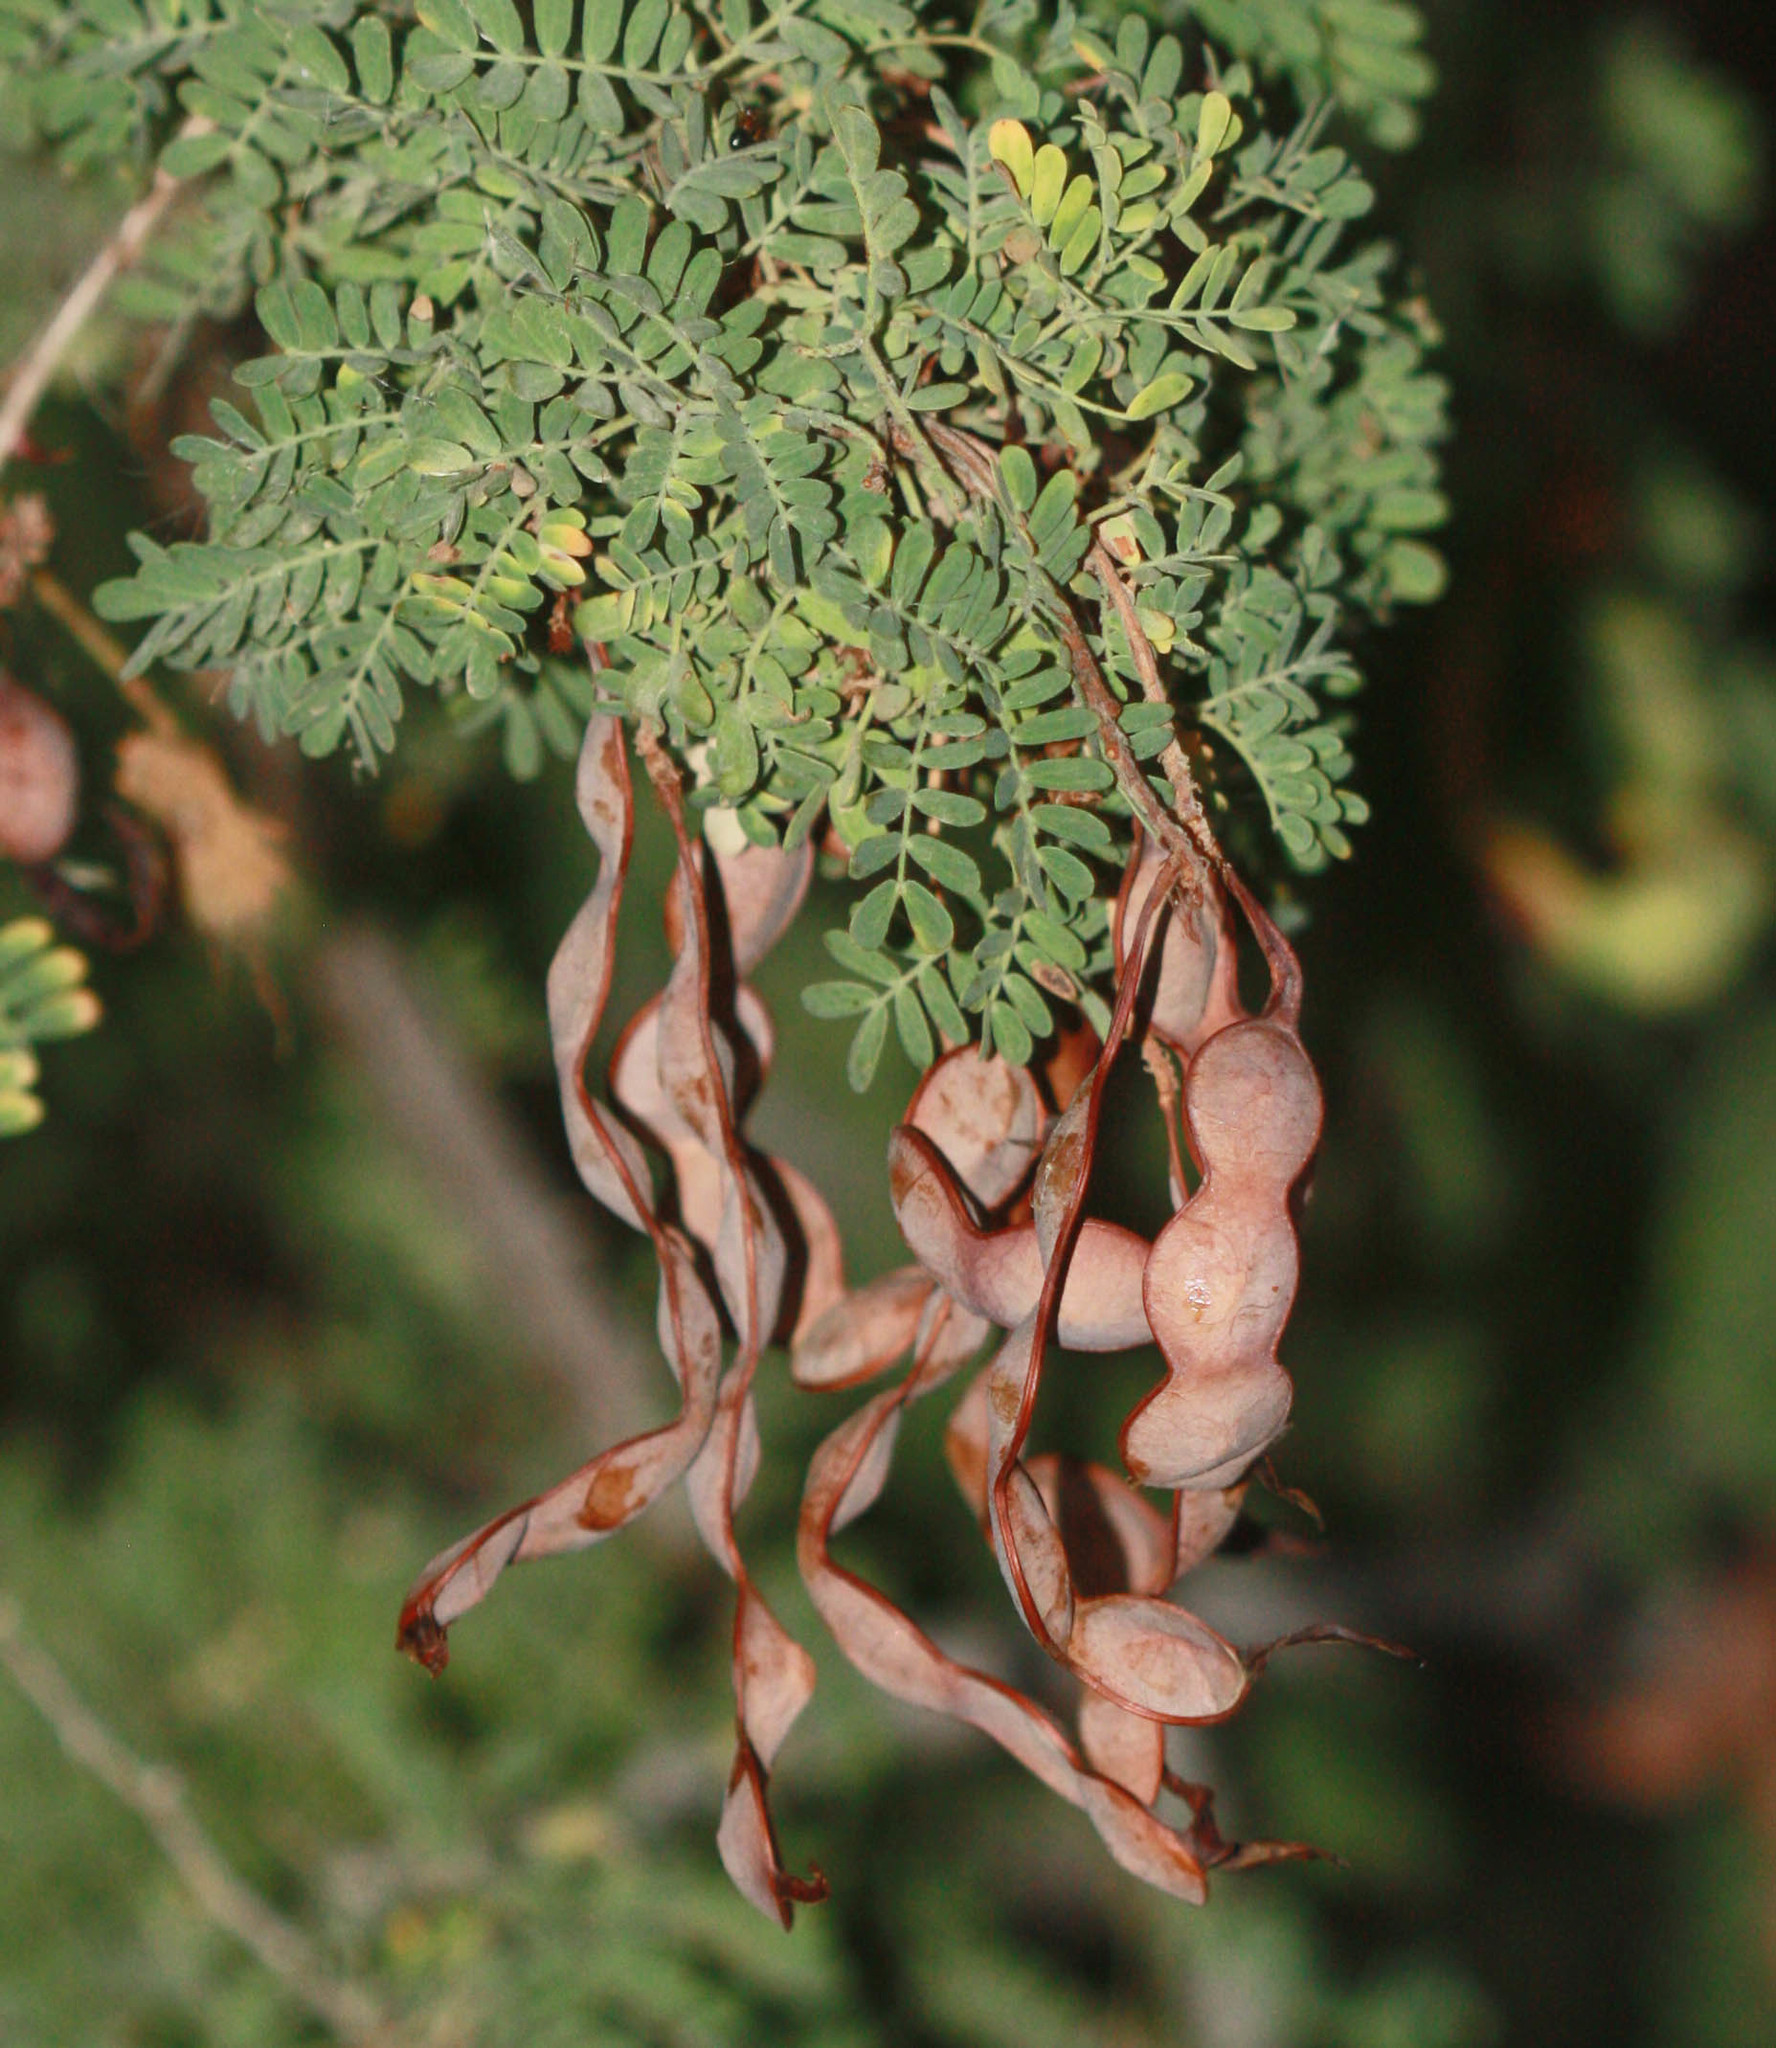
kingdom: Plantae
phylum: Tracheophyta
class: Magnoliopsida
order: Fabales
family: Fabaceae
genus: Senegalia
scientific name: Senegalia greggii
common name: Texas-mimosa
